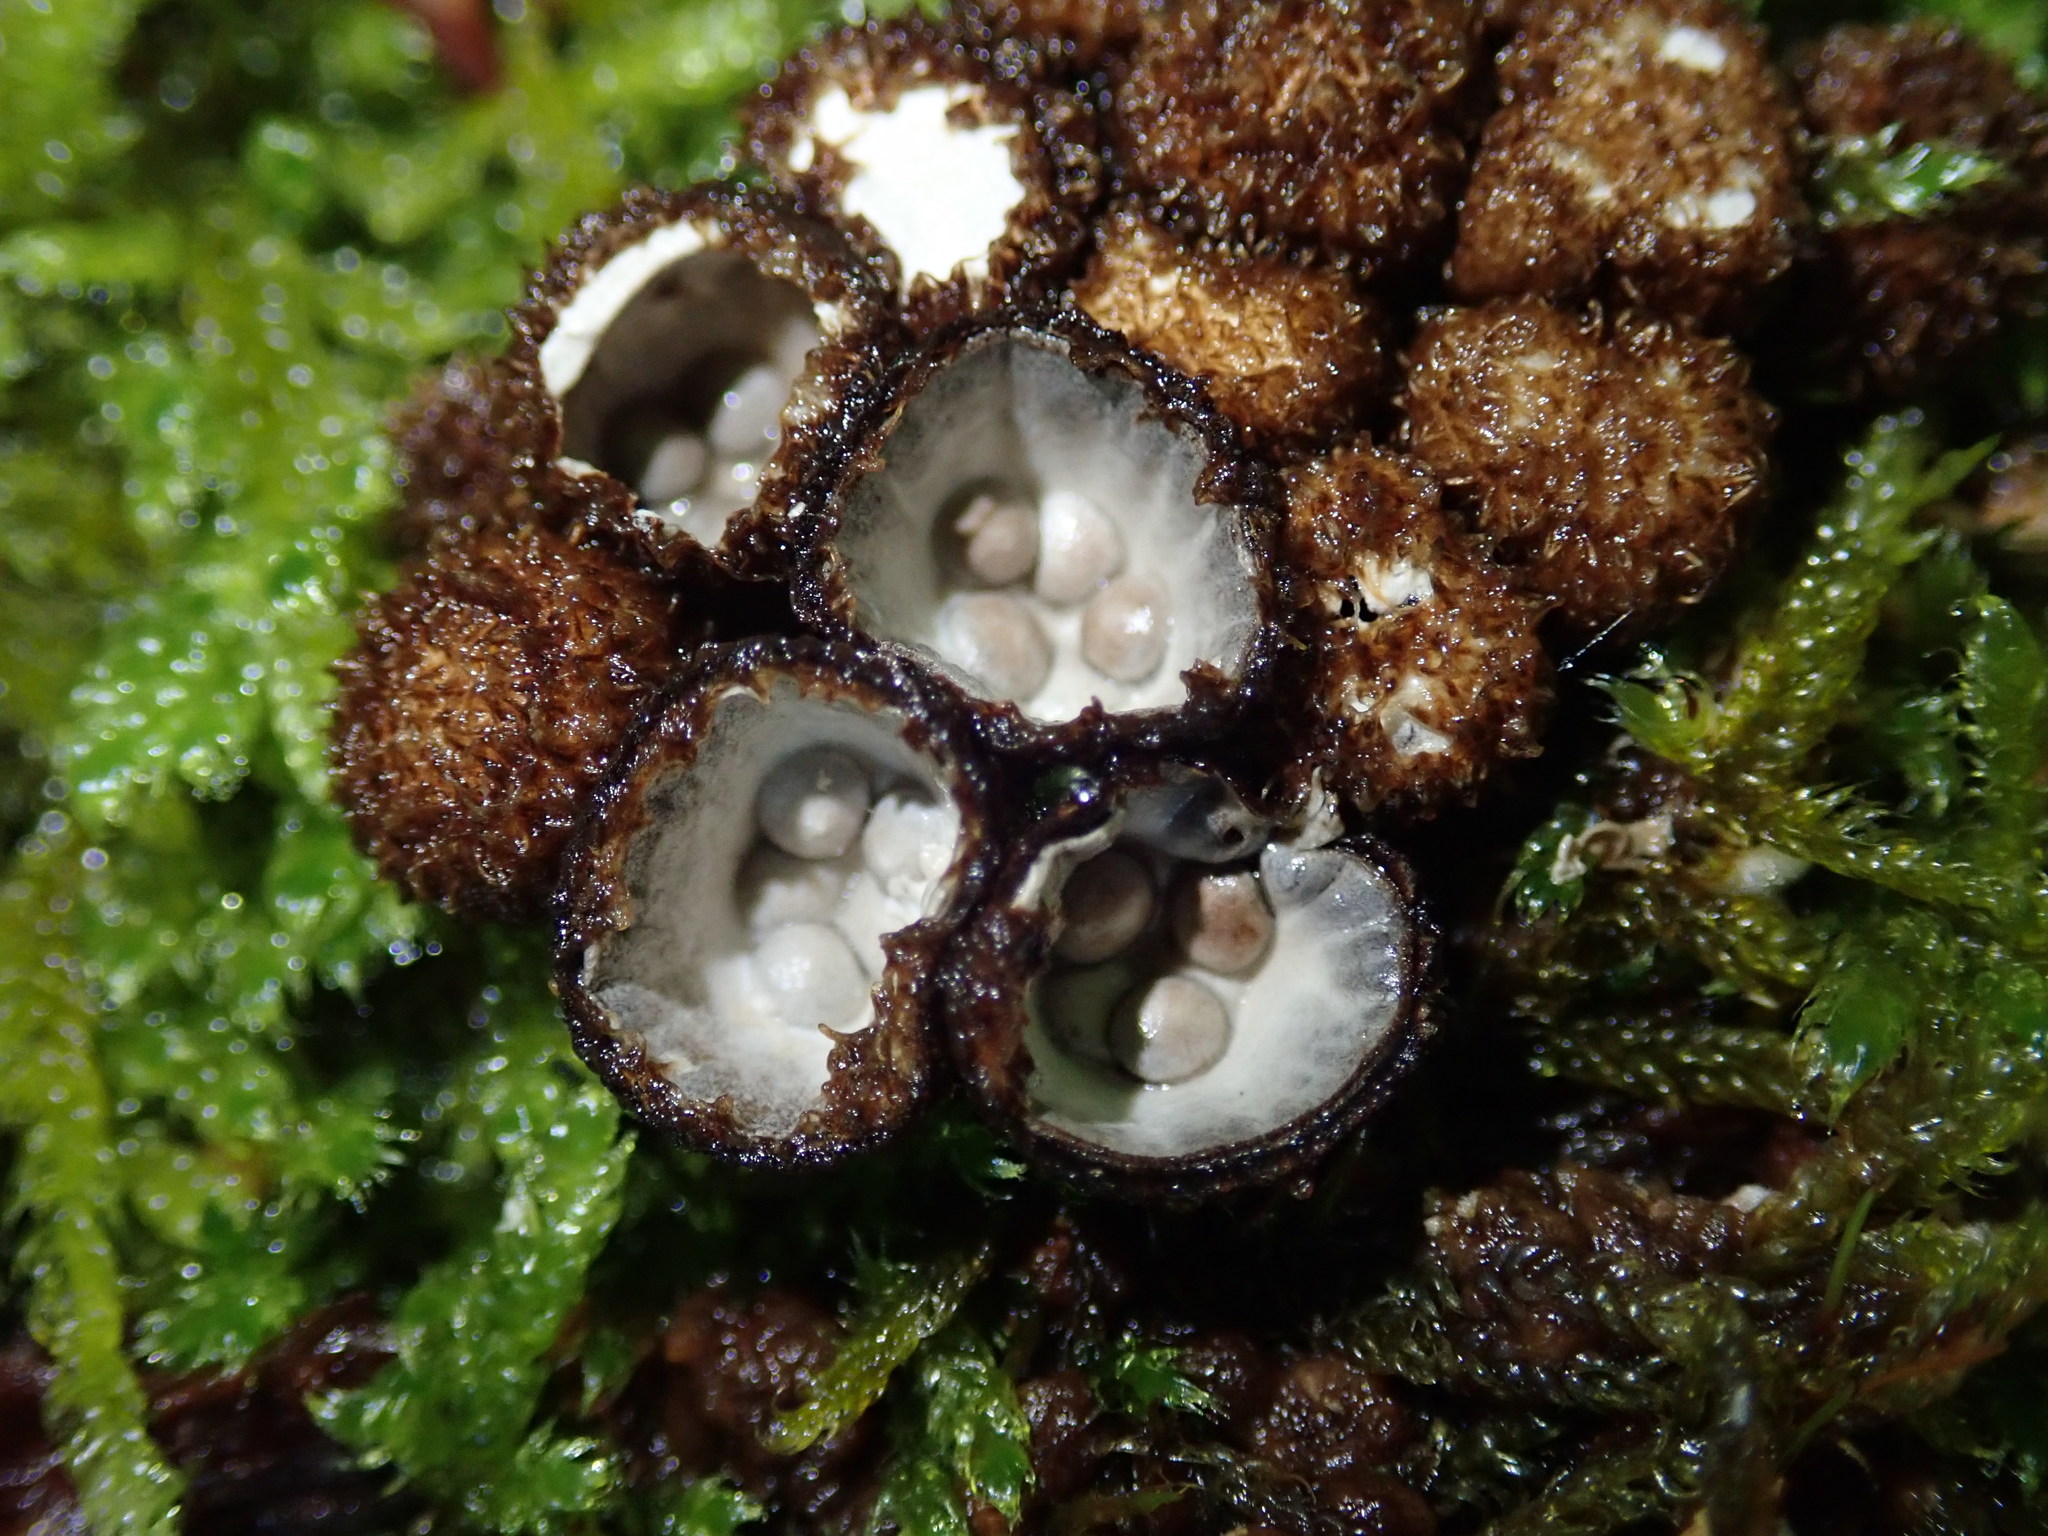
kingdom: Fungi
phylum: Basidiomycota
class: Agaricomycetes
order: Agaricales
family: Agaricaceae
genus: Cyathus
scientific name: Cyathus striatus
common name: Fluted bird's nest
